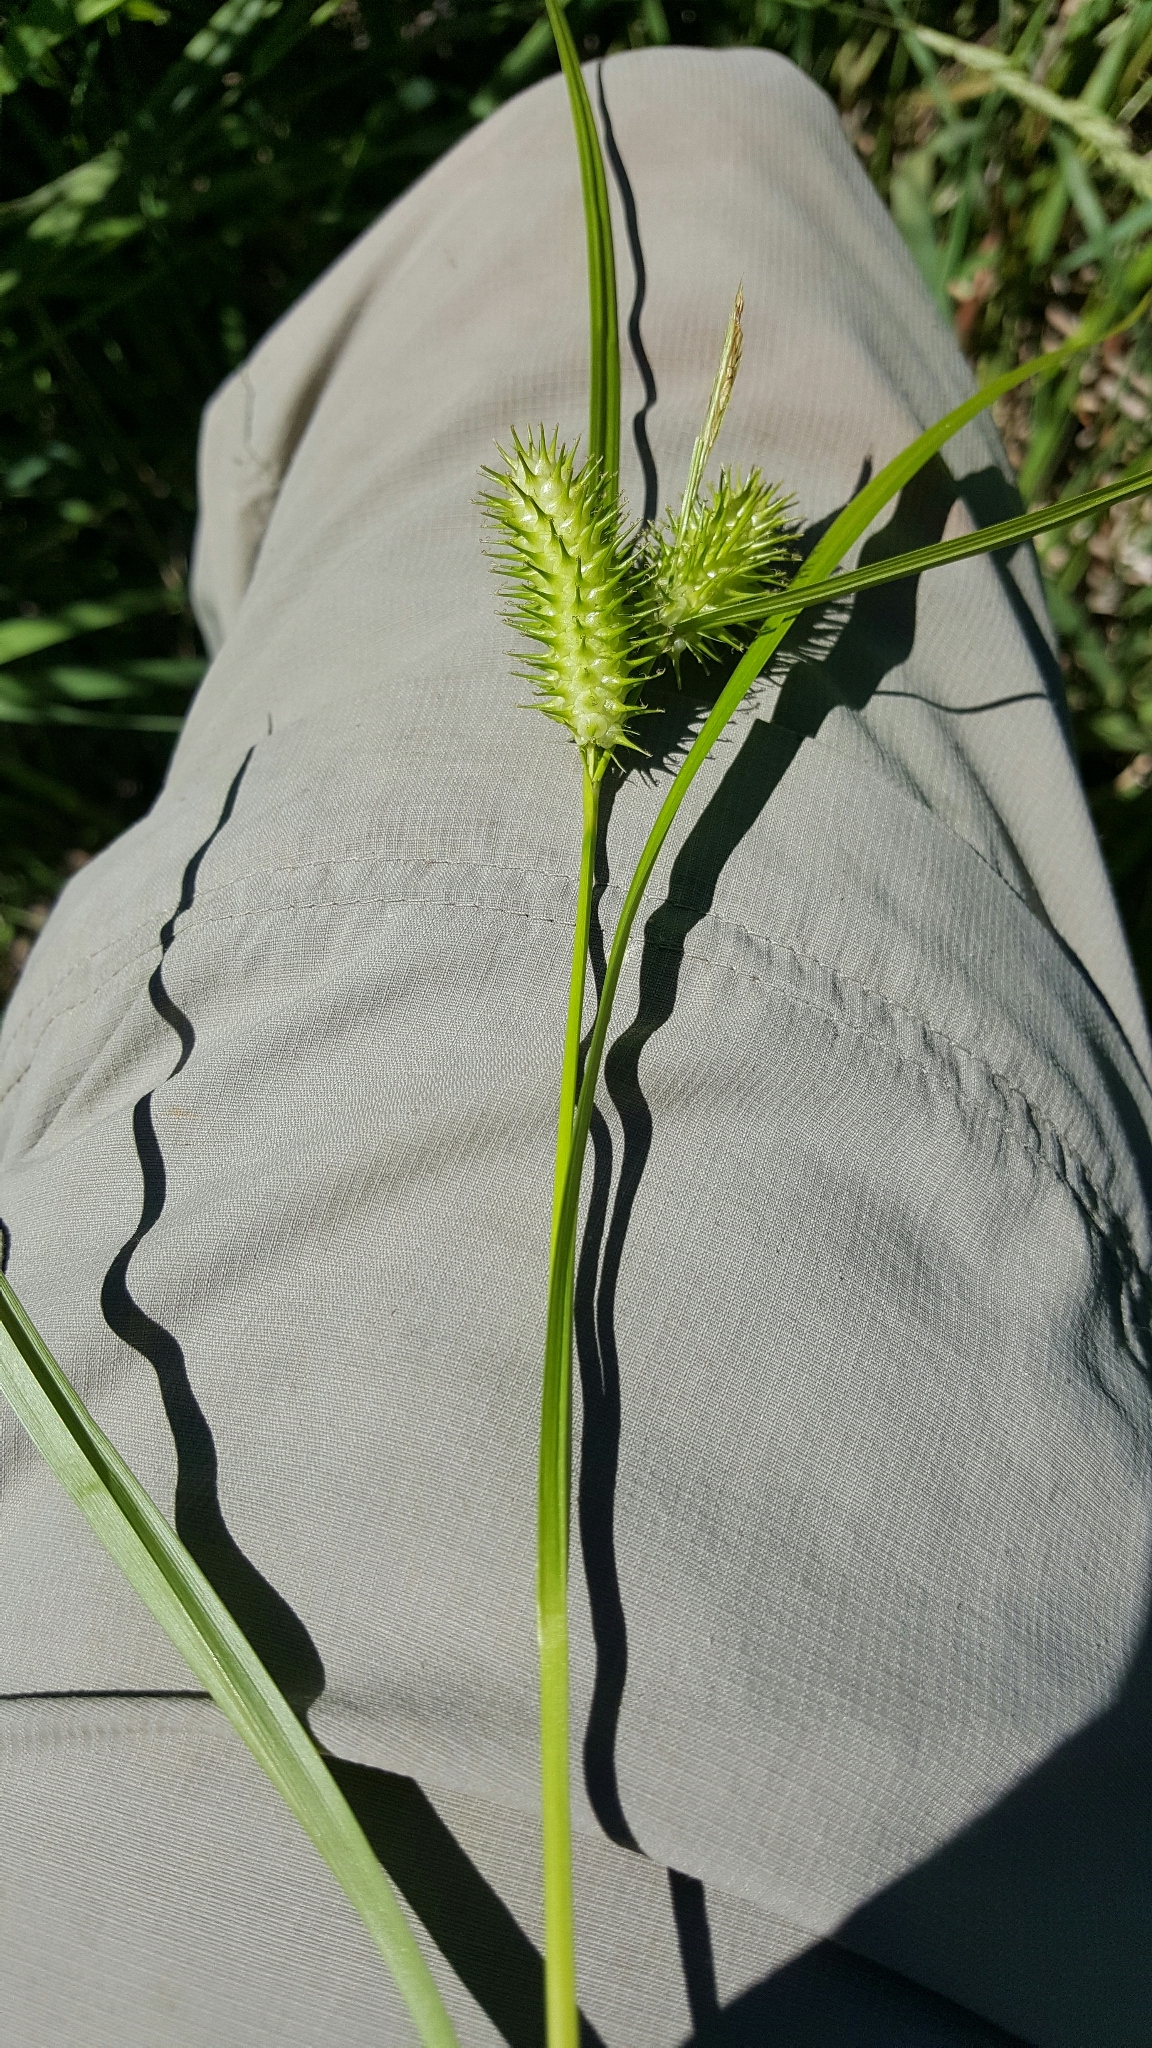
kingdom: Plantae
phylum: Tracheophyta
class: Liliopsida
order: Poales
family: Cyperaceae
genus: Carex
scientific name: Carex lurida
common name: Sallow sedge
